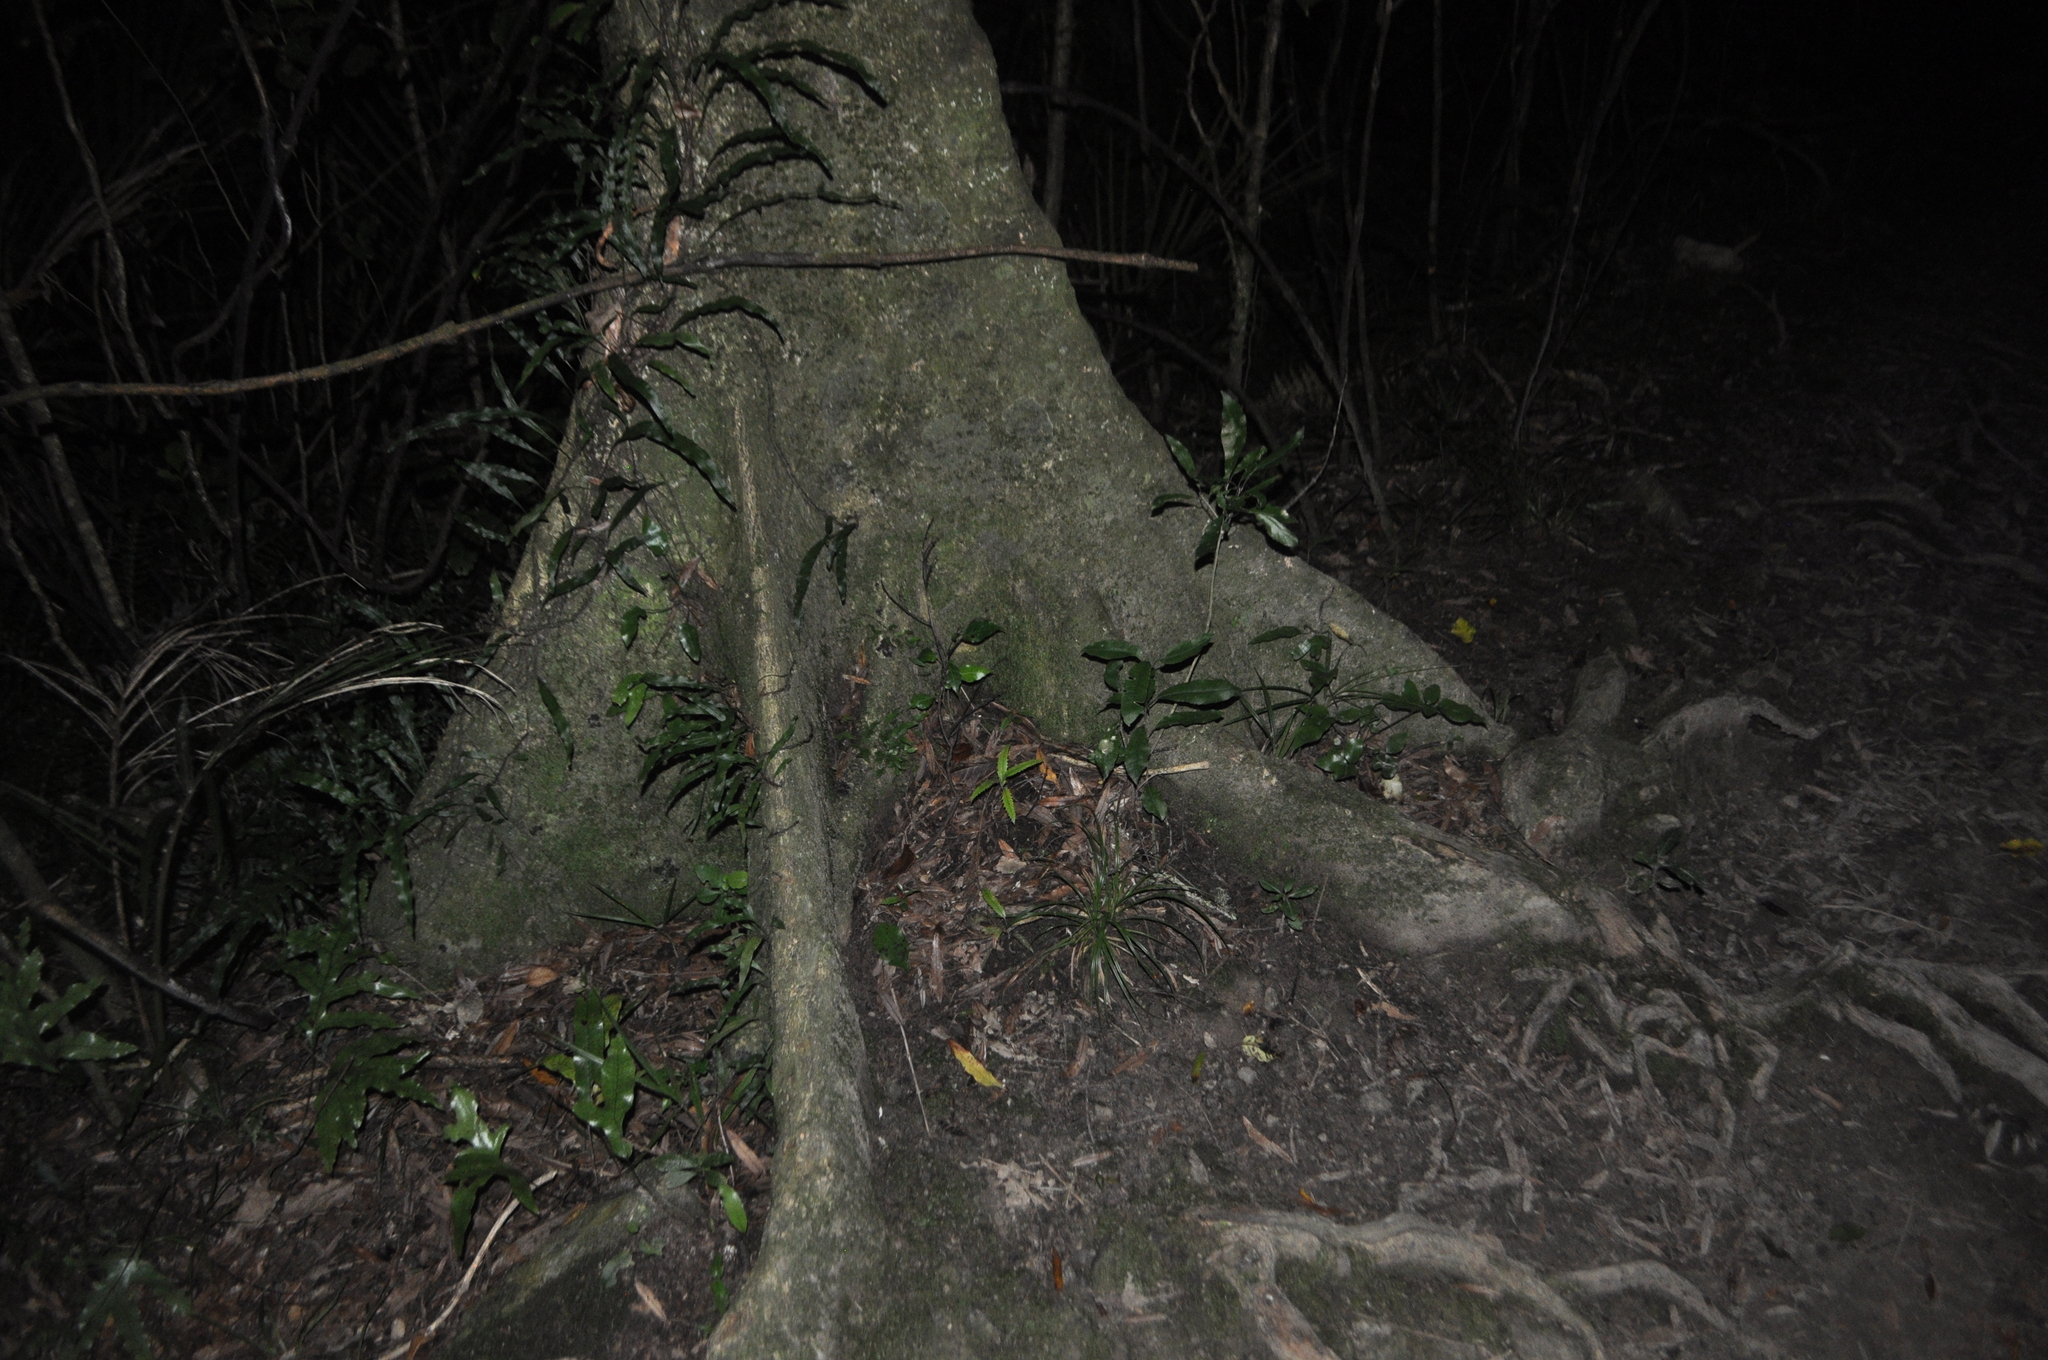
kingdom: Plantae
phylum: Tracheophyta
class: Magnoliopsida
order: Laurales
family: Atherospermataceae
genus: Laurelia
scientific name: Laurelia novae-zelandiae
